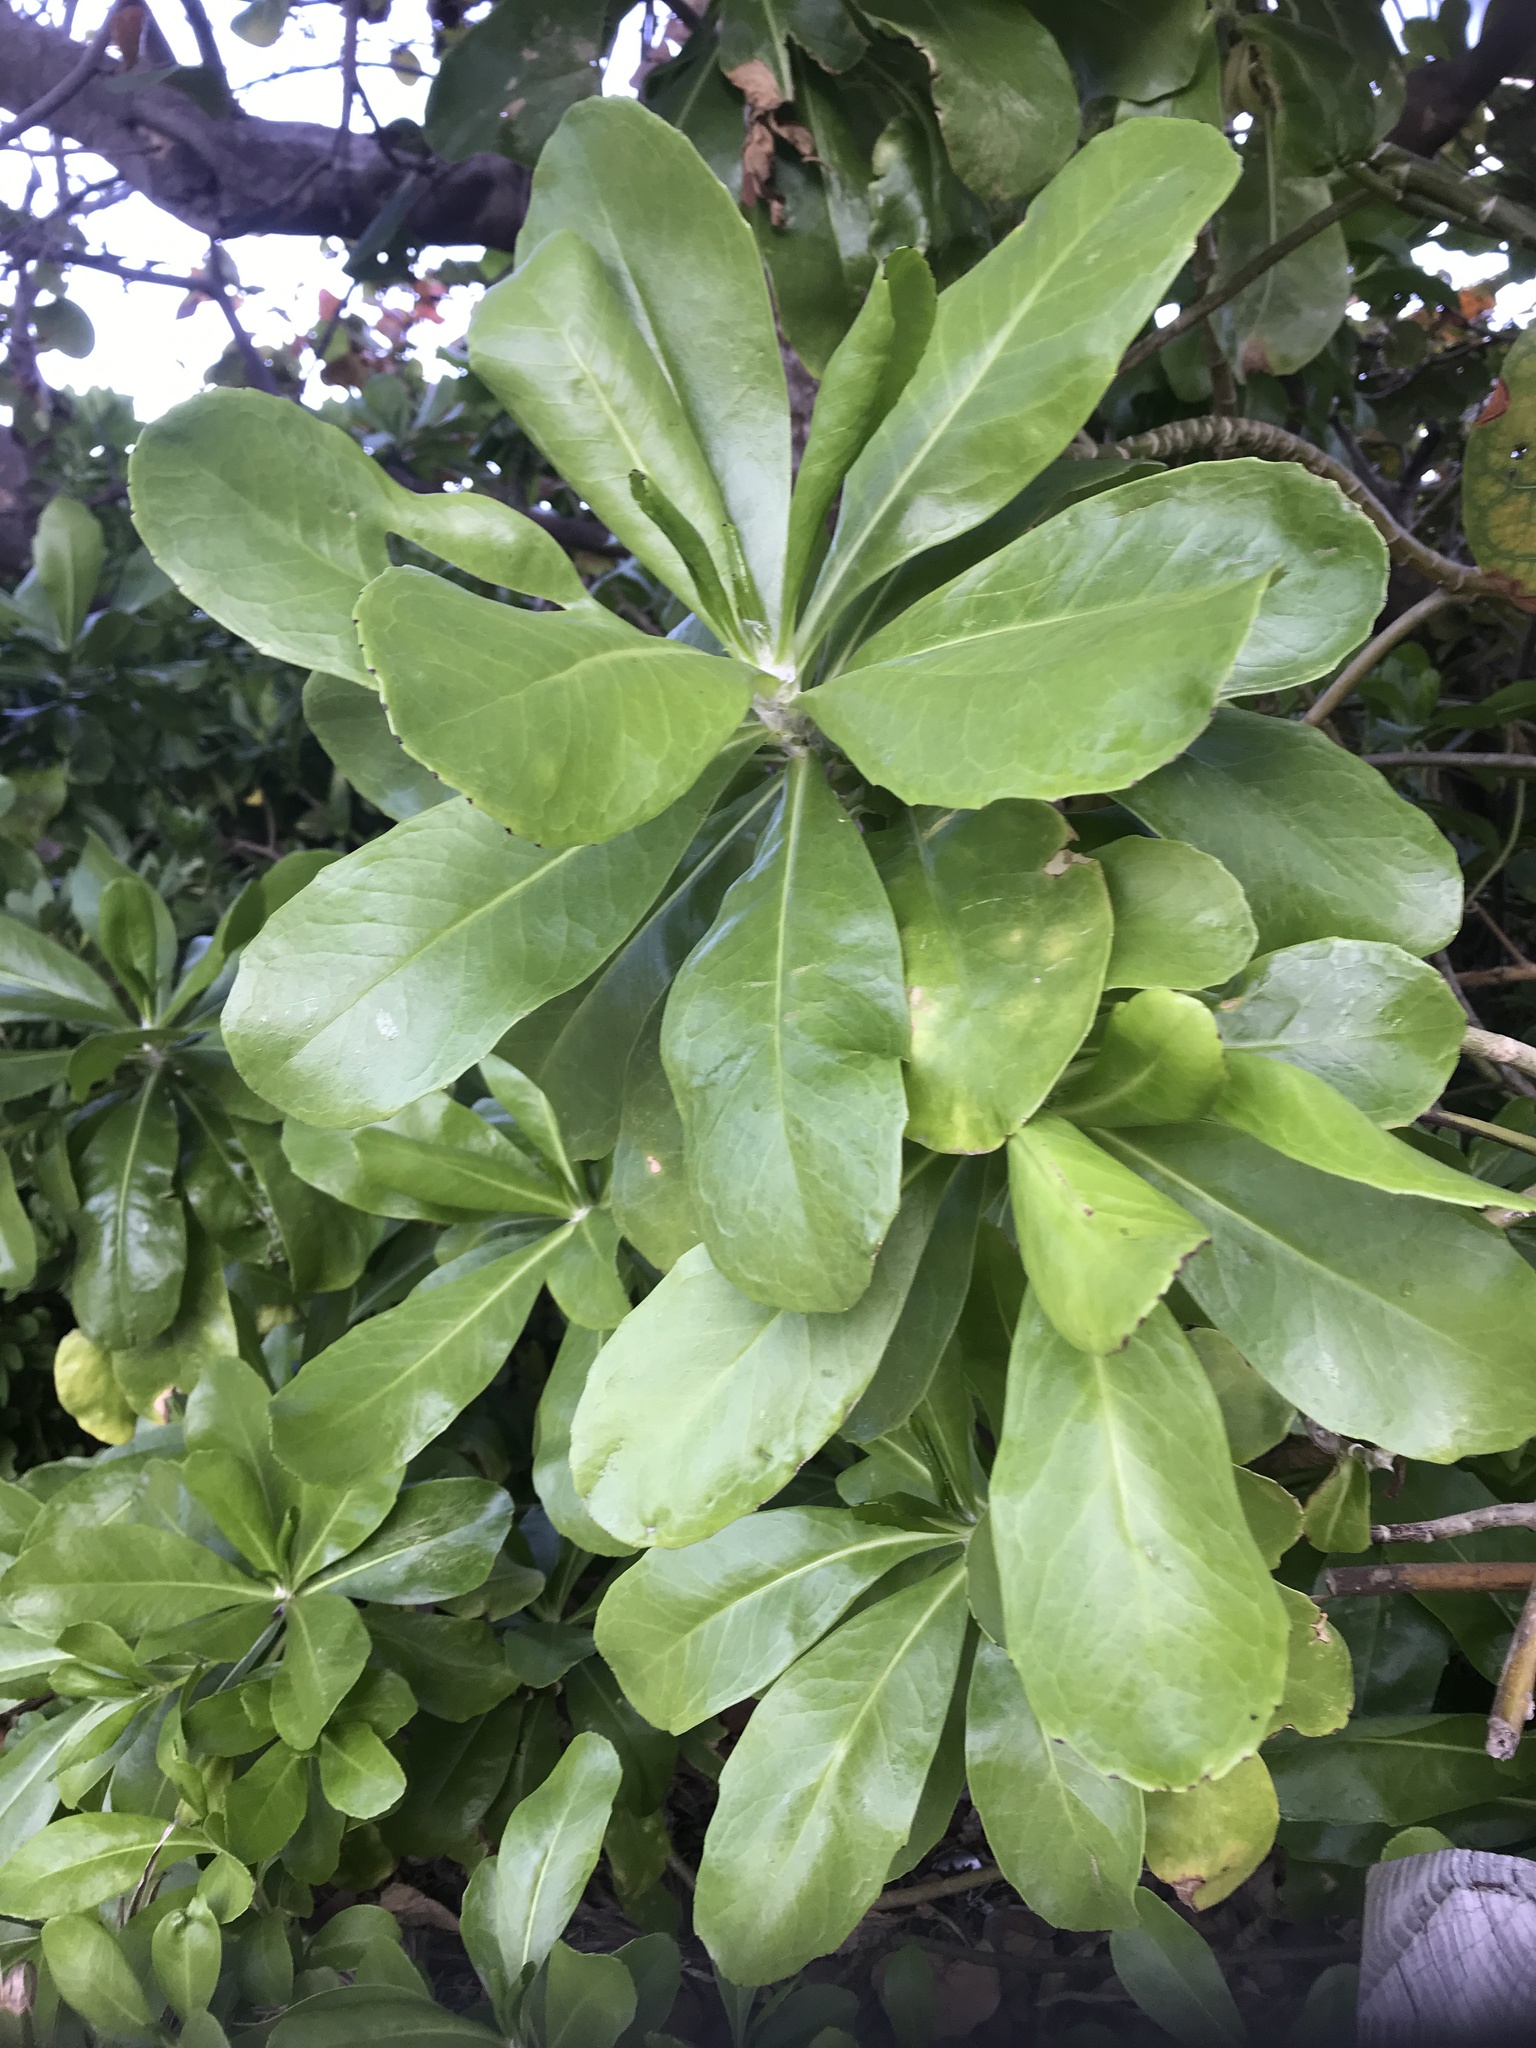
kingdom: Plantae
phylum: Tracheophyta
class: Magnoliopsida
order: Asterales
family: Goodeniaceae
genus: Scaevola
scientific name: Scaevola taccada
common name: Sea lettucetree
